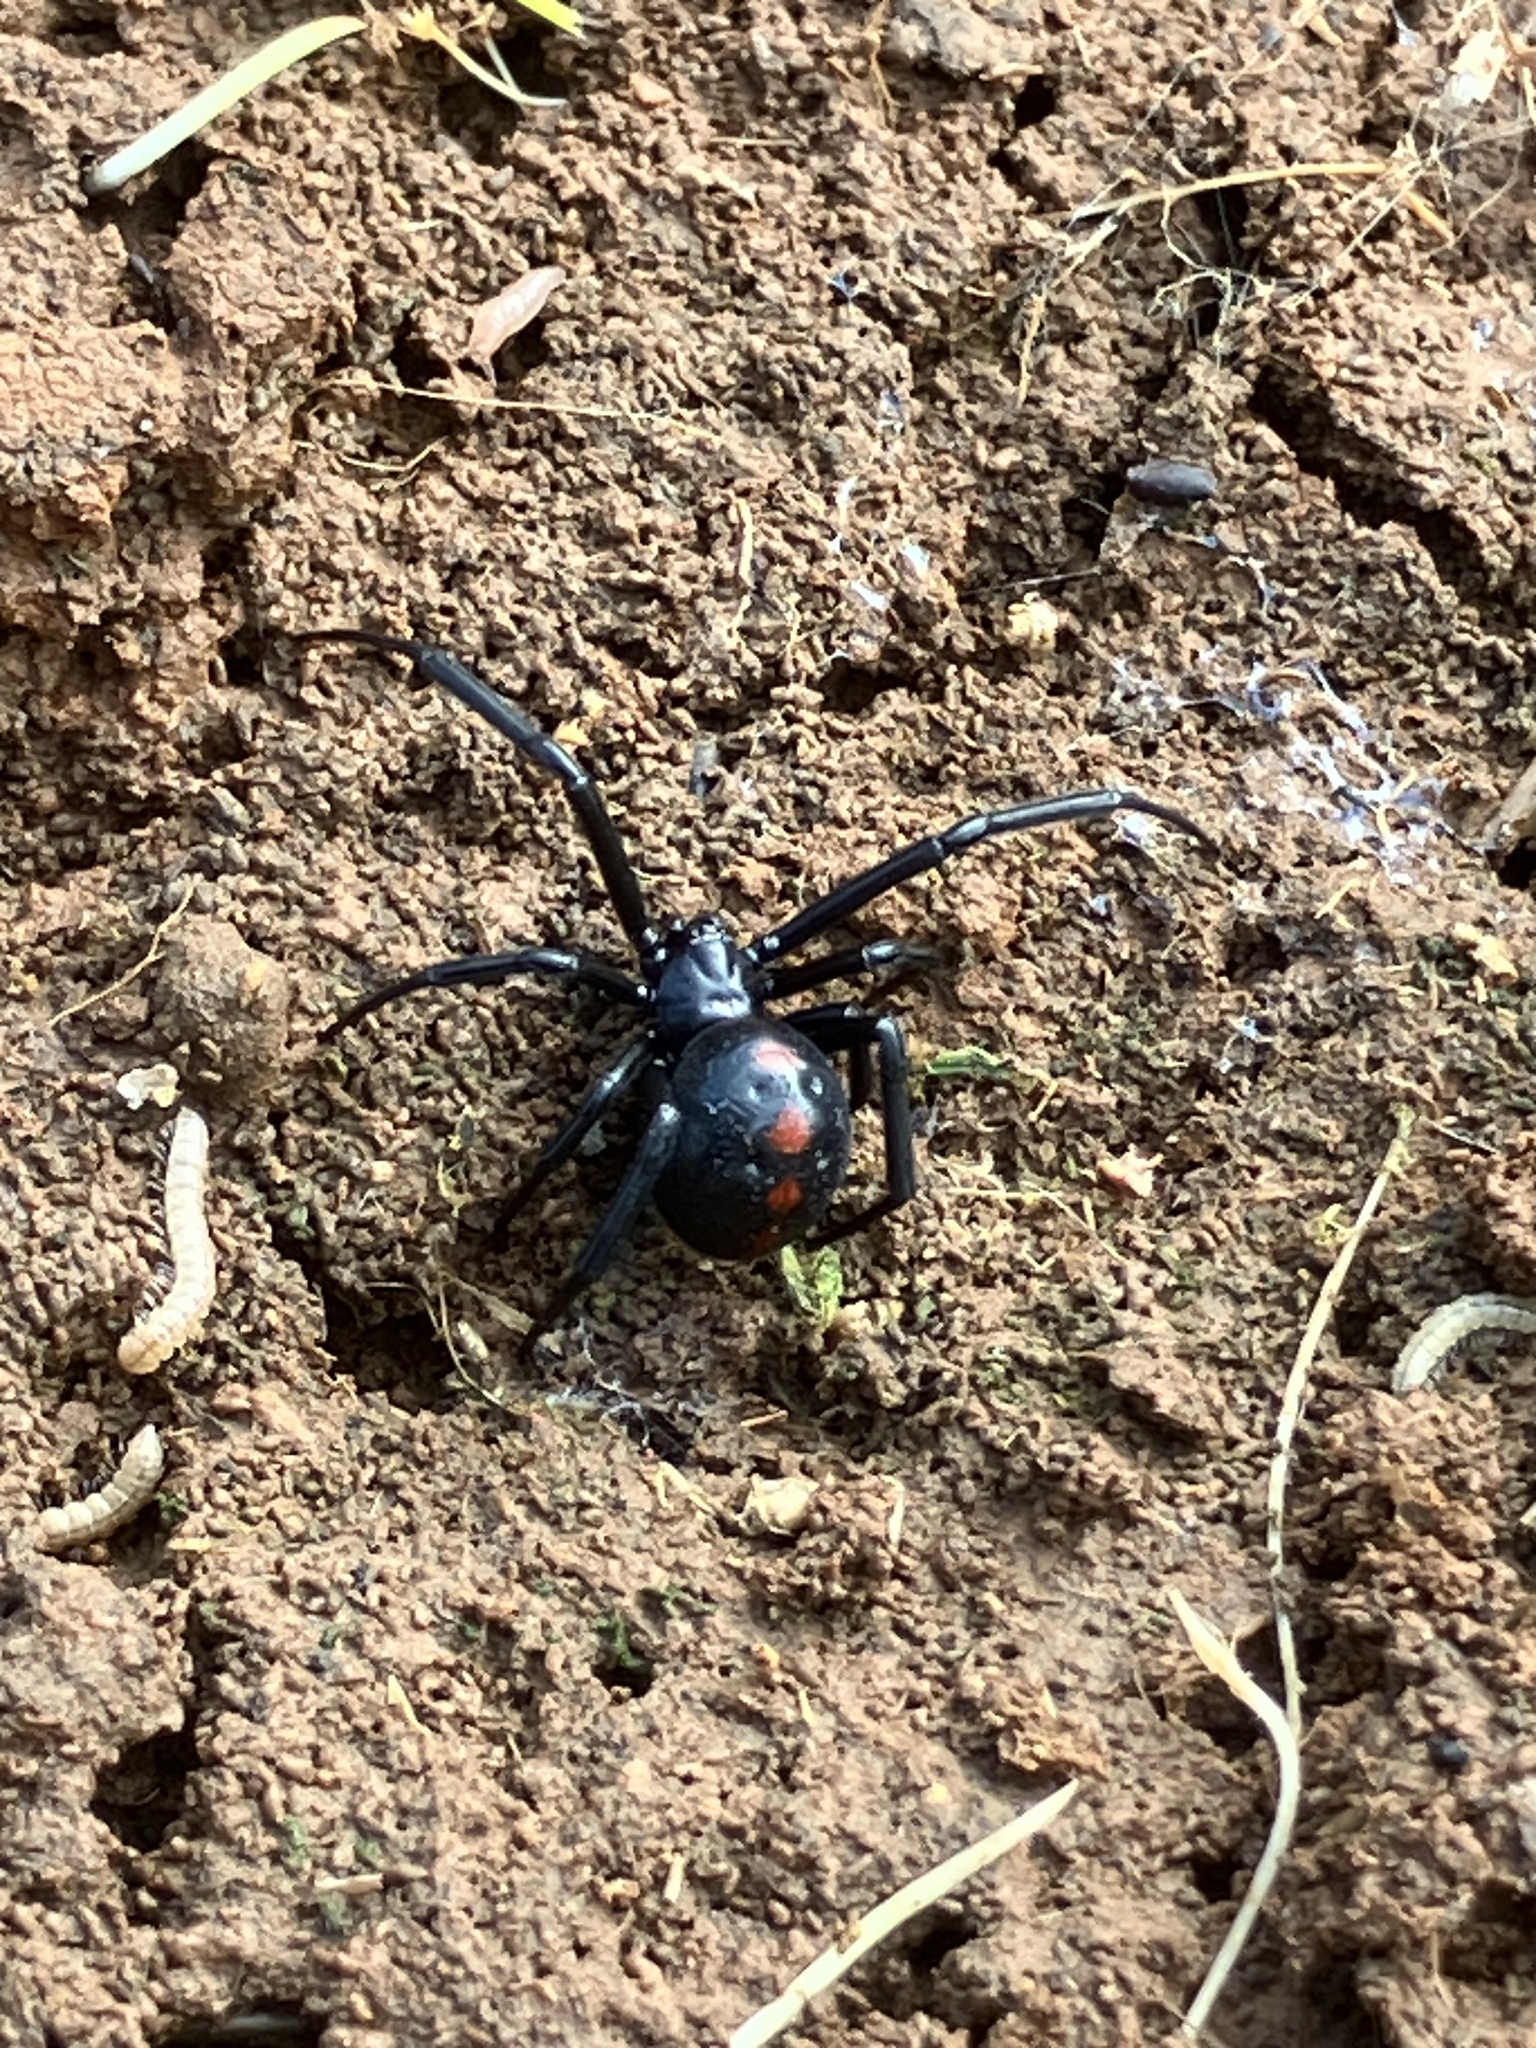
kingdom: Animalia
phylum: Arthropoda
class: Arachnida
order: Araneae
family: Theridiidae
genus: Latrodectus
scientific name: Latrodectus variolus
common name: Northern black widow
